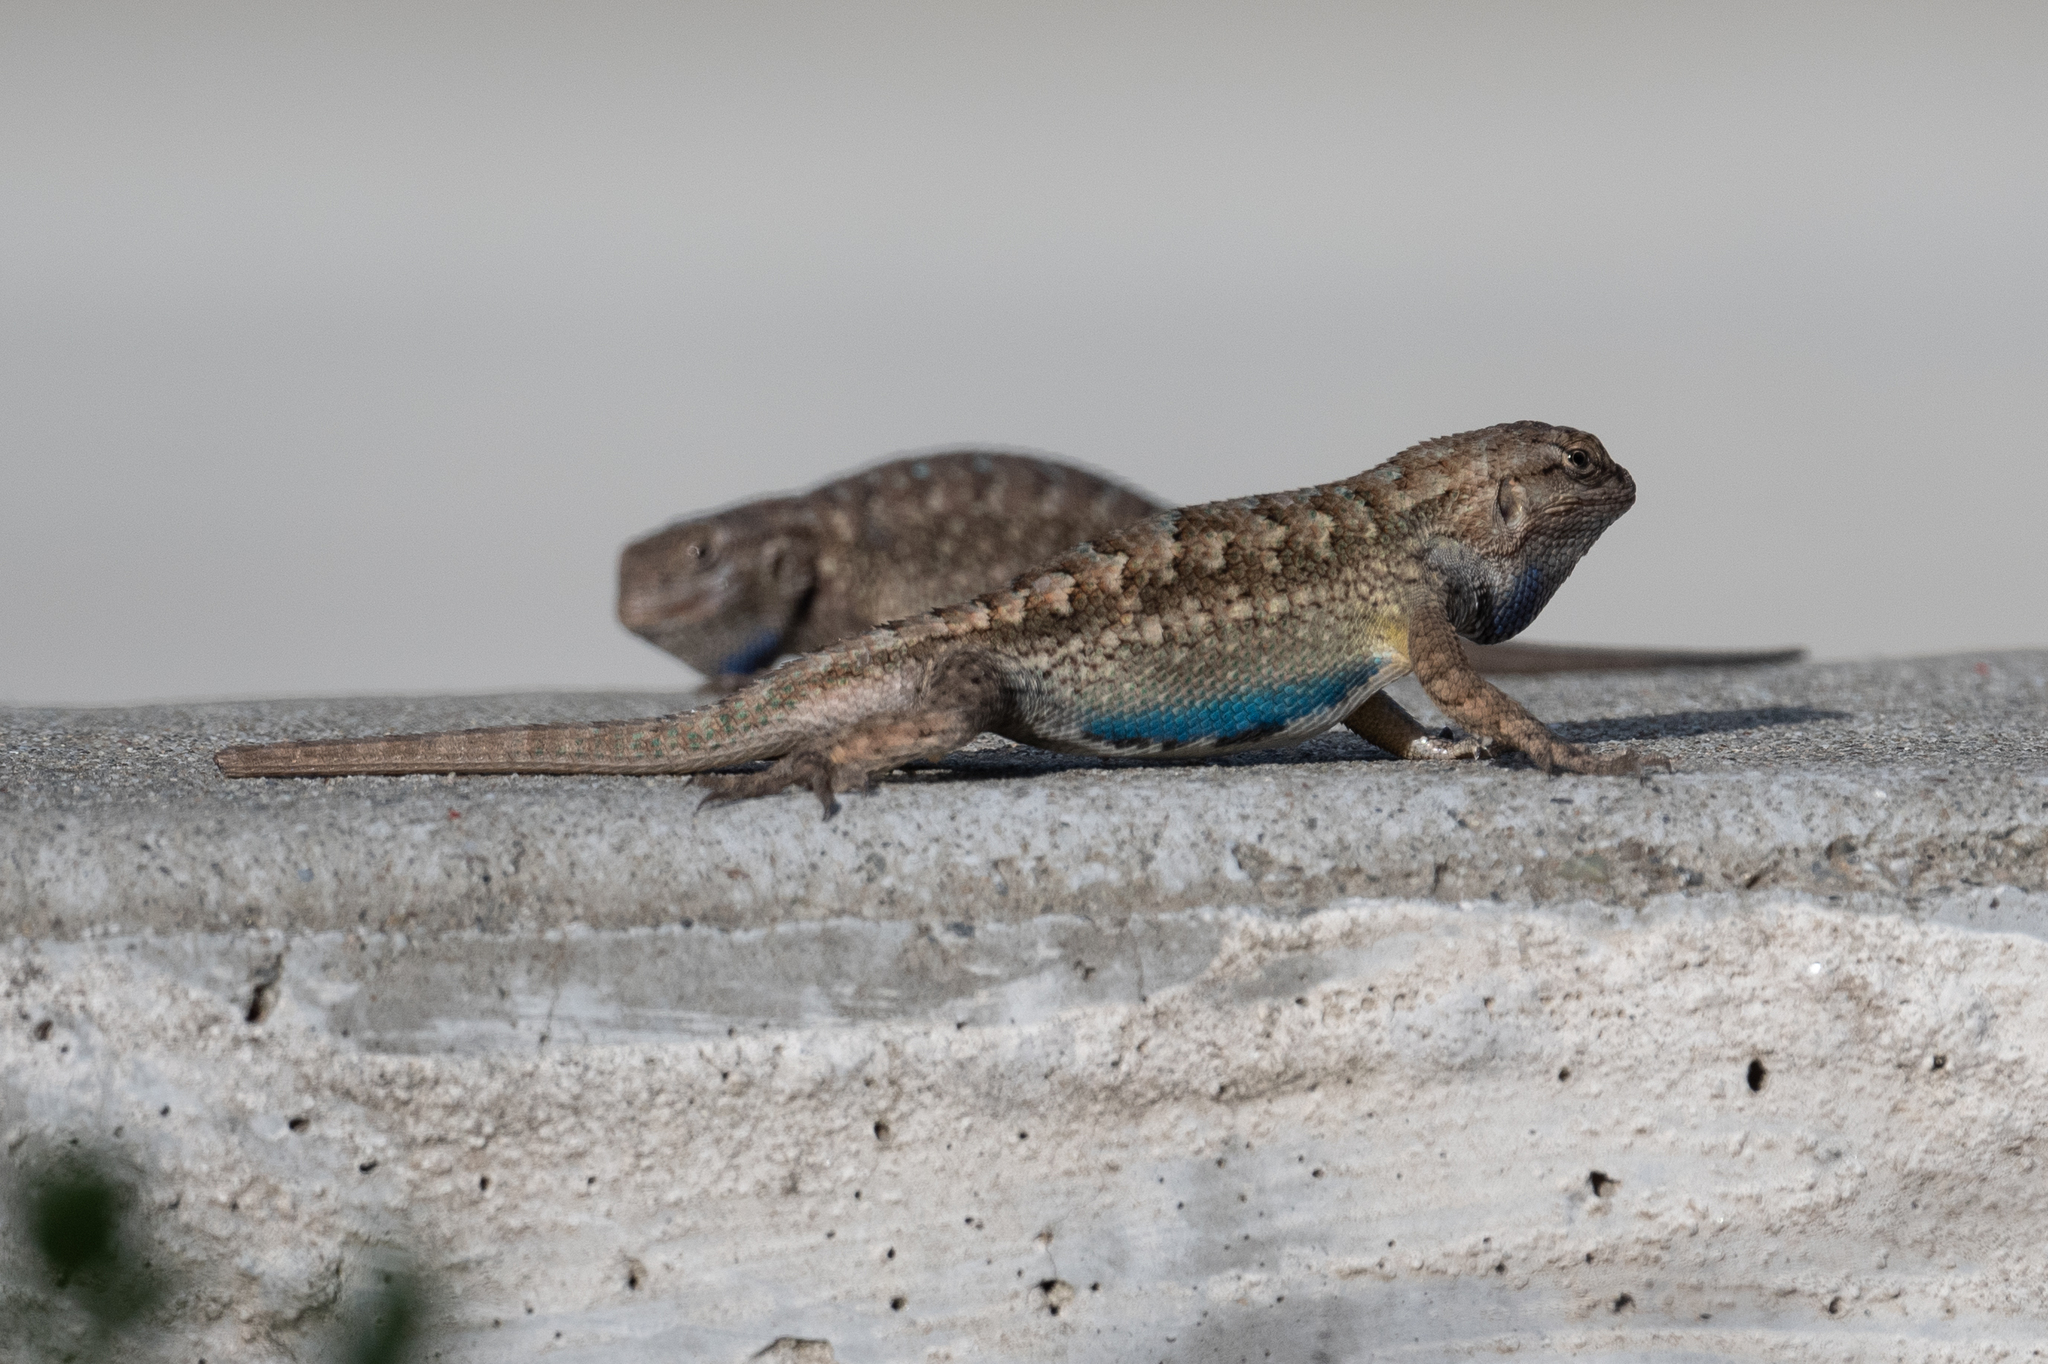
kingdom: Animalia
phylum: Chordata
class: Squamata
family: Phrynosomatidae
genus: Sceloporus
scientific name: Sceloporus occidentalis
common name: Western fence lizard
